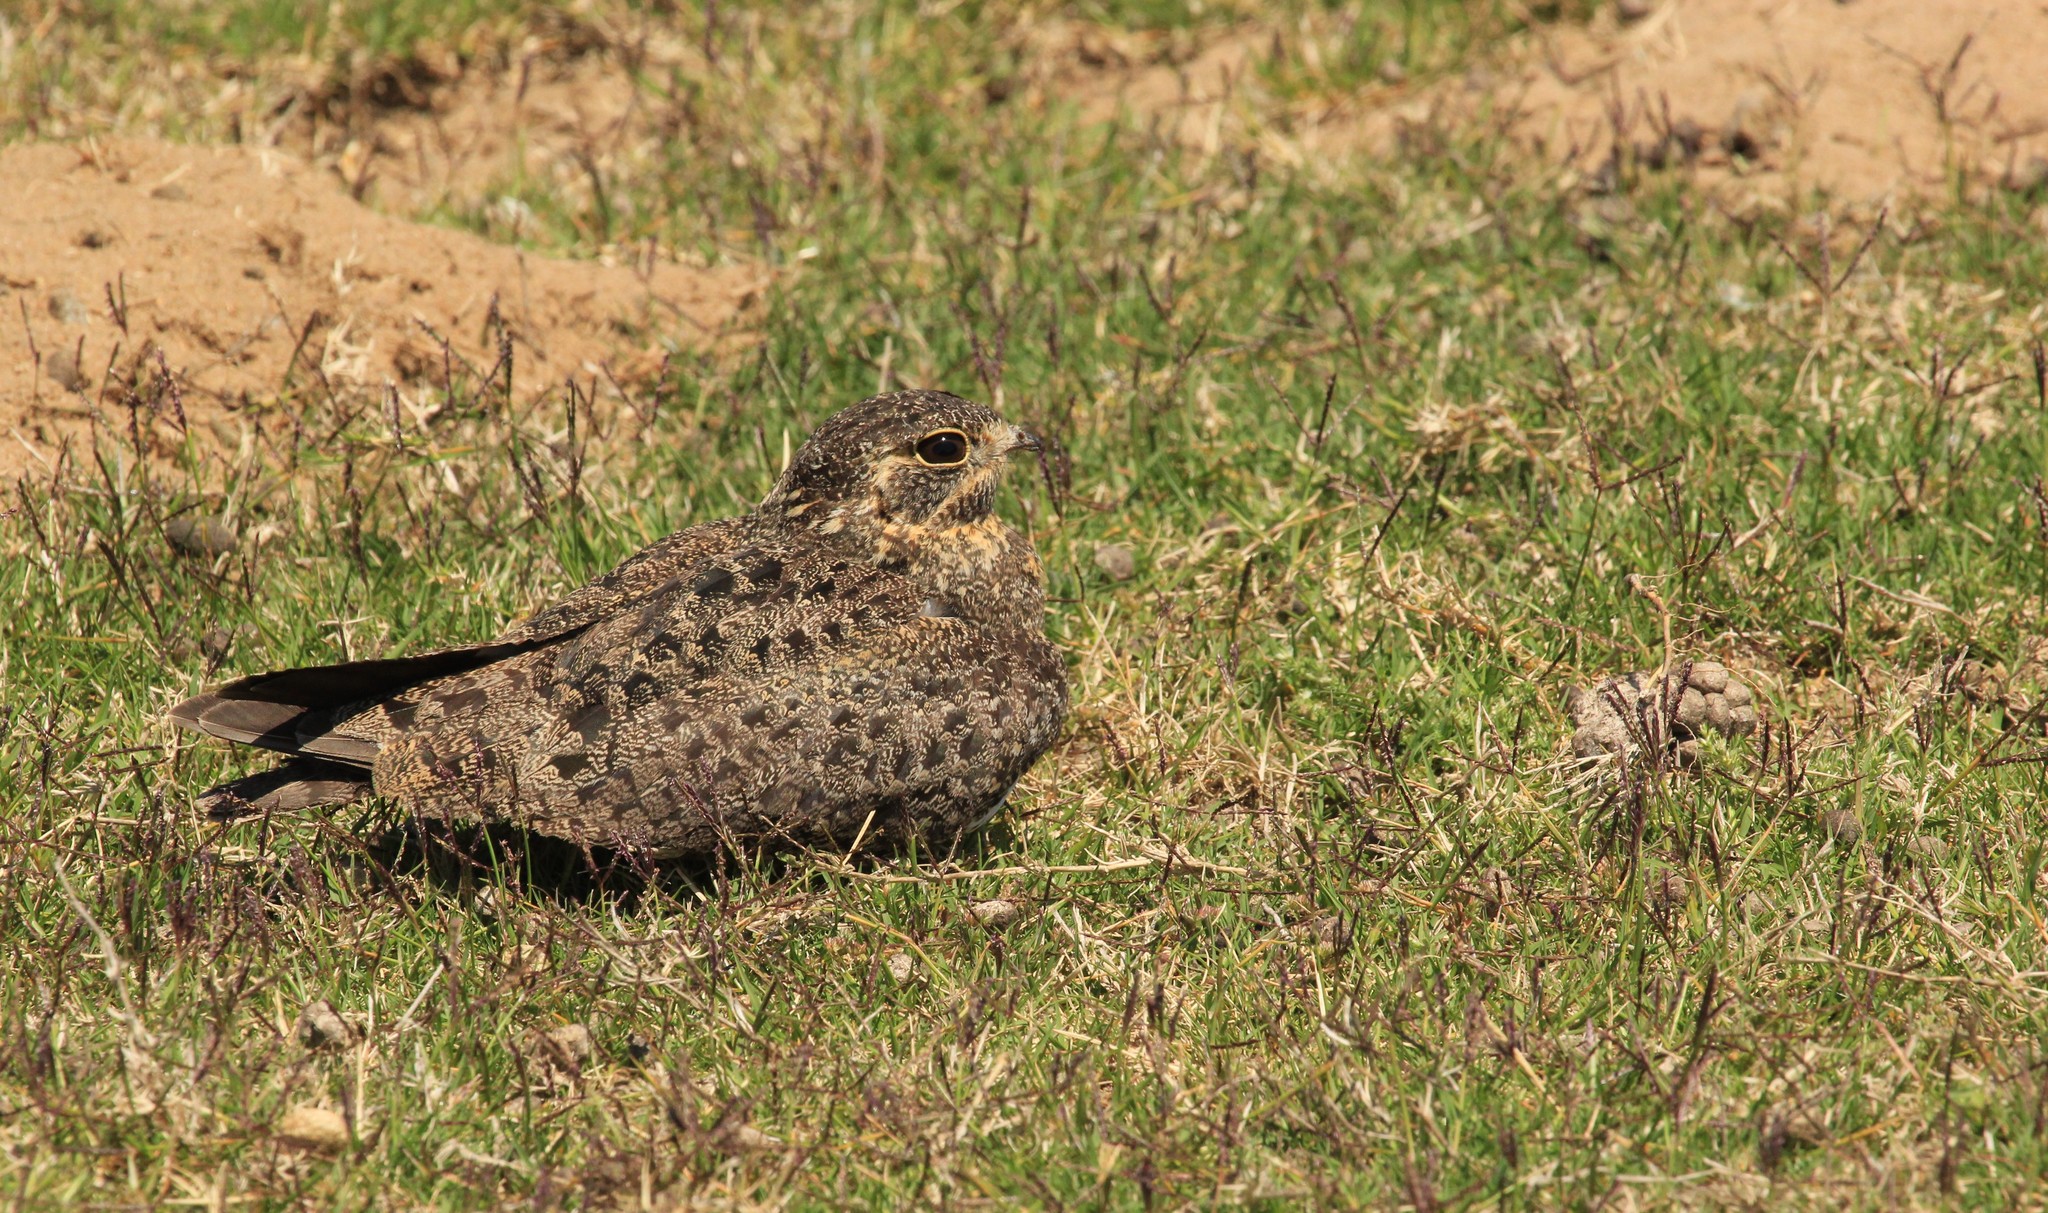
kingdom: Animalia
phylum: Chordata
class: Aves
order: Caprimulgiformes
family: Caprimulgidae
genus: Chordeiles
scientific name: Chordeiles nacunda
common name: Nacunda nighthawk
